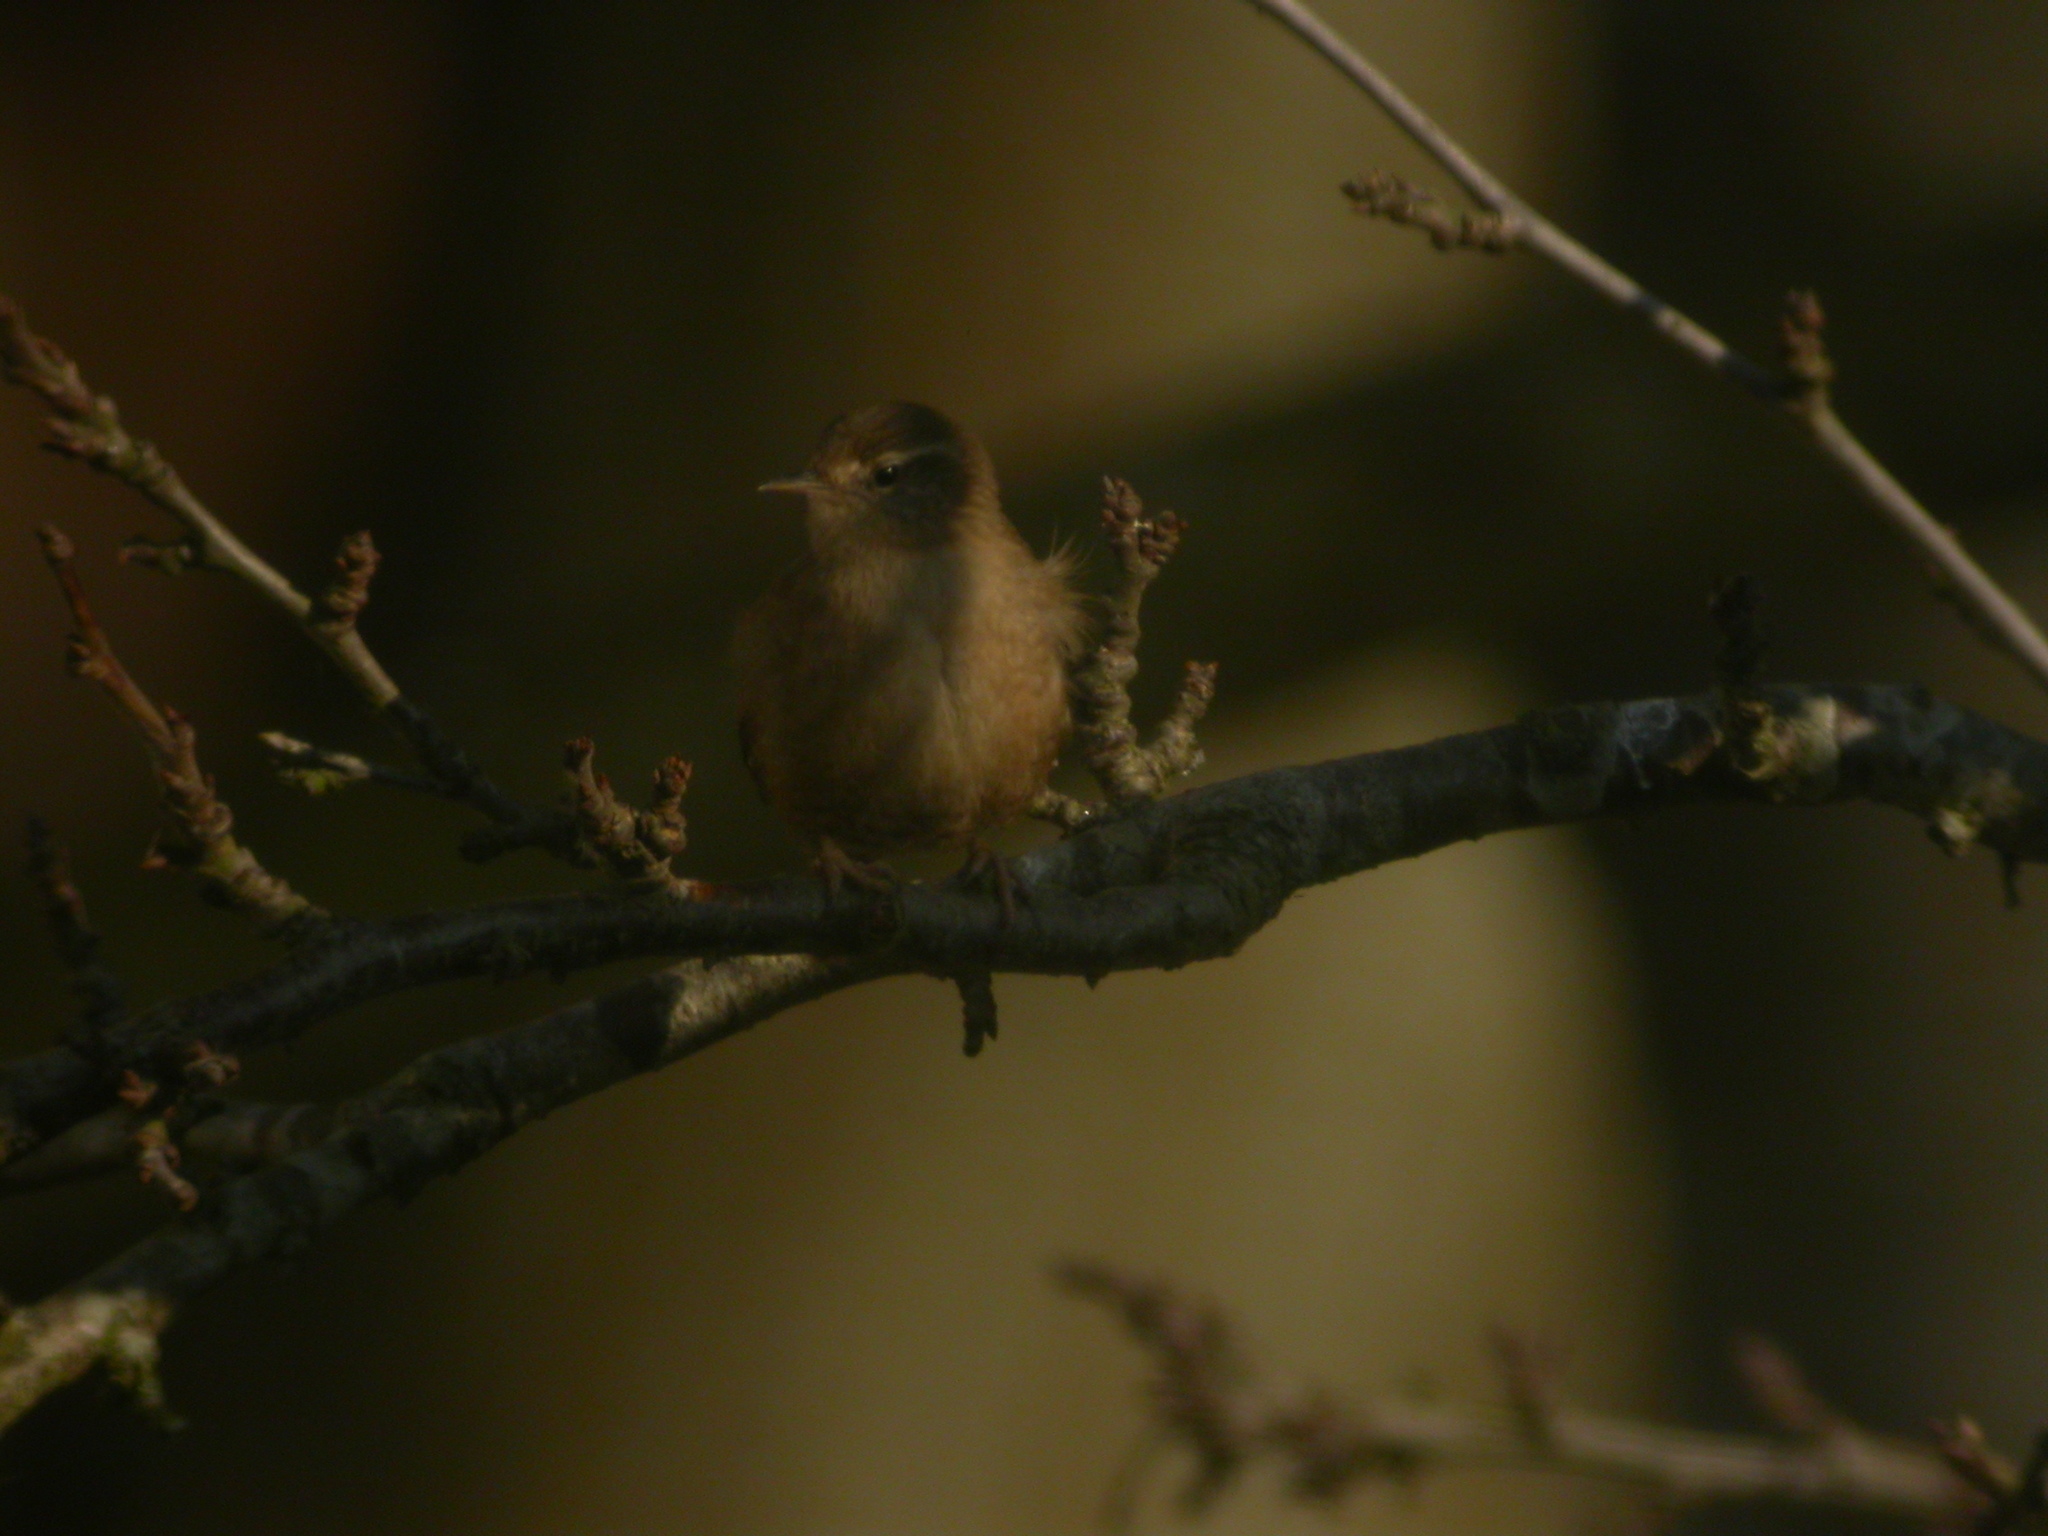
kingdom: Animalia
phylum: Chordata
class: Aves
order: Passeriformes
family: Troglodytidae
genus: Troglodytes
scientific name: Troglodytes troglodytes
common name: Eurasian wren
